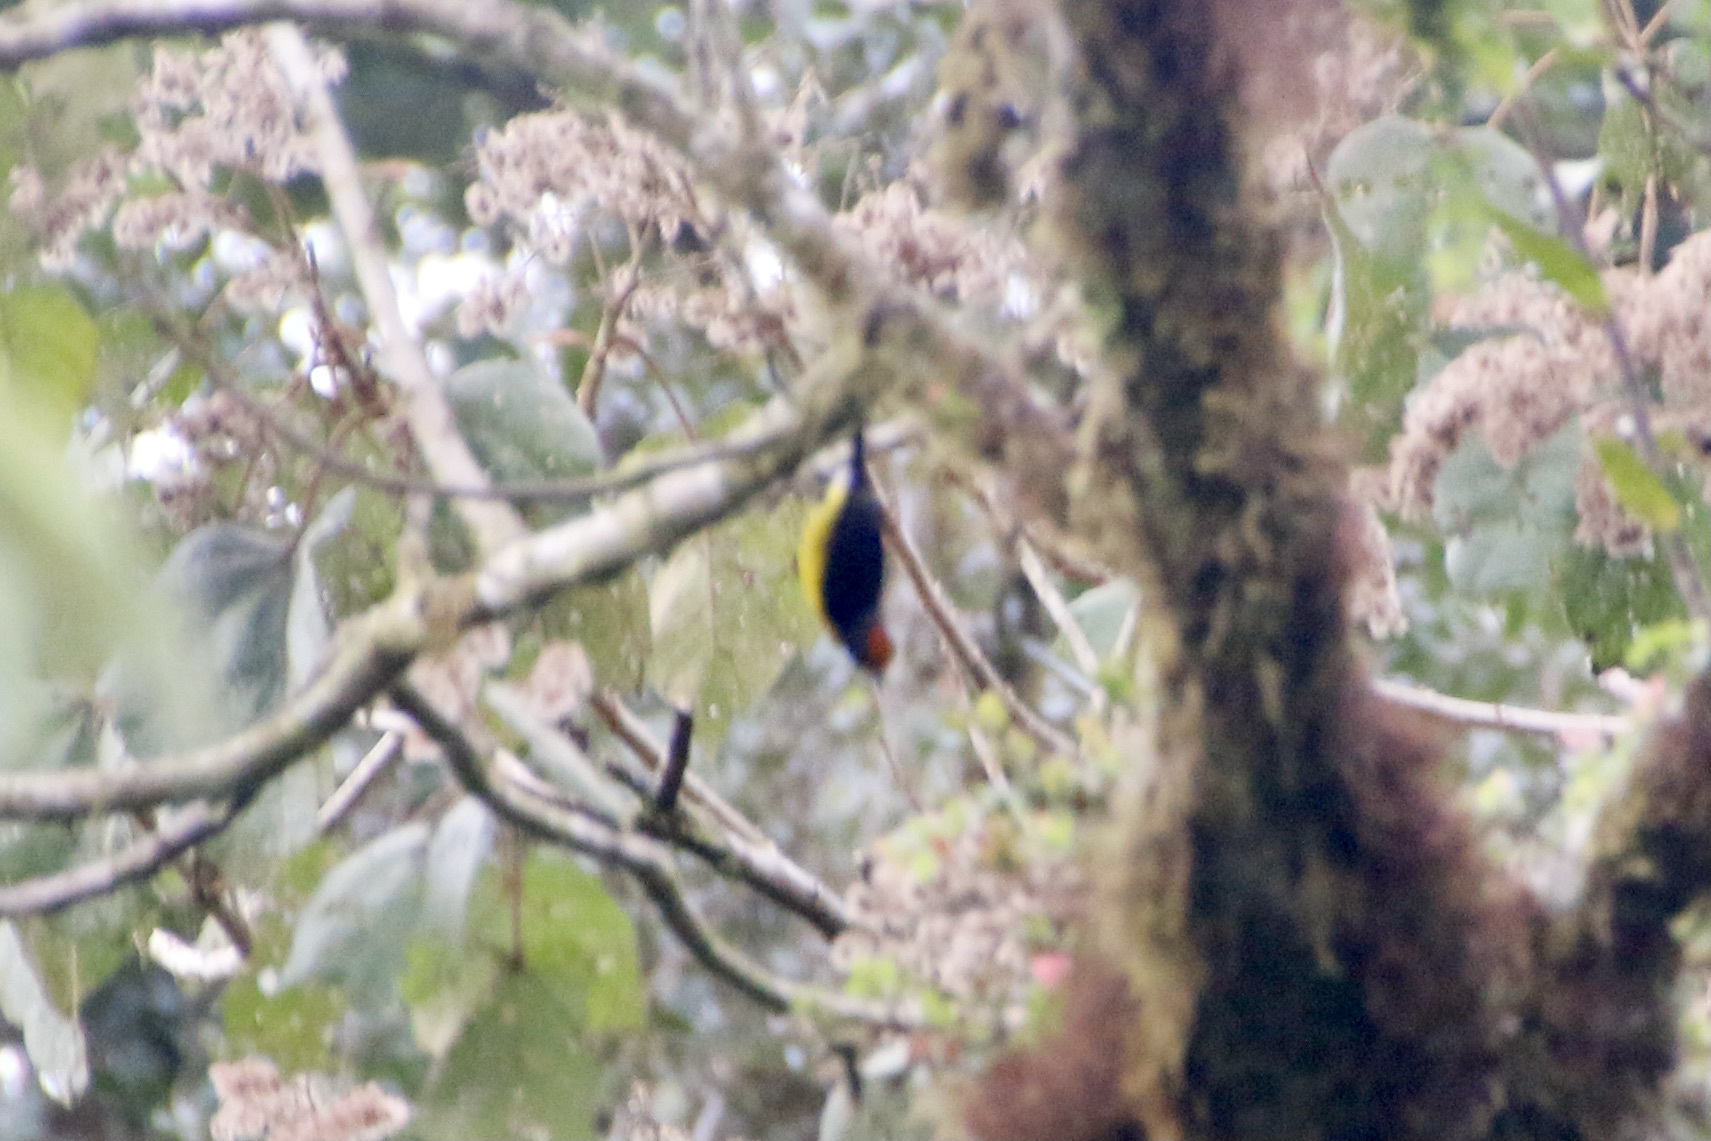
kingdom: Animalia
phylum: Chordata
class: Aves
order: Passeriformes
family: Fringillidae
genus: Euphonia
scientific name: Euphonia anneae
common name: Tawny-capped euphonia
